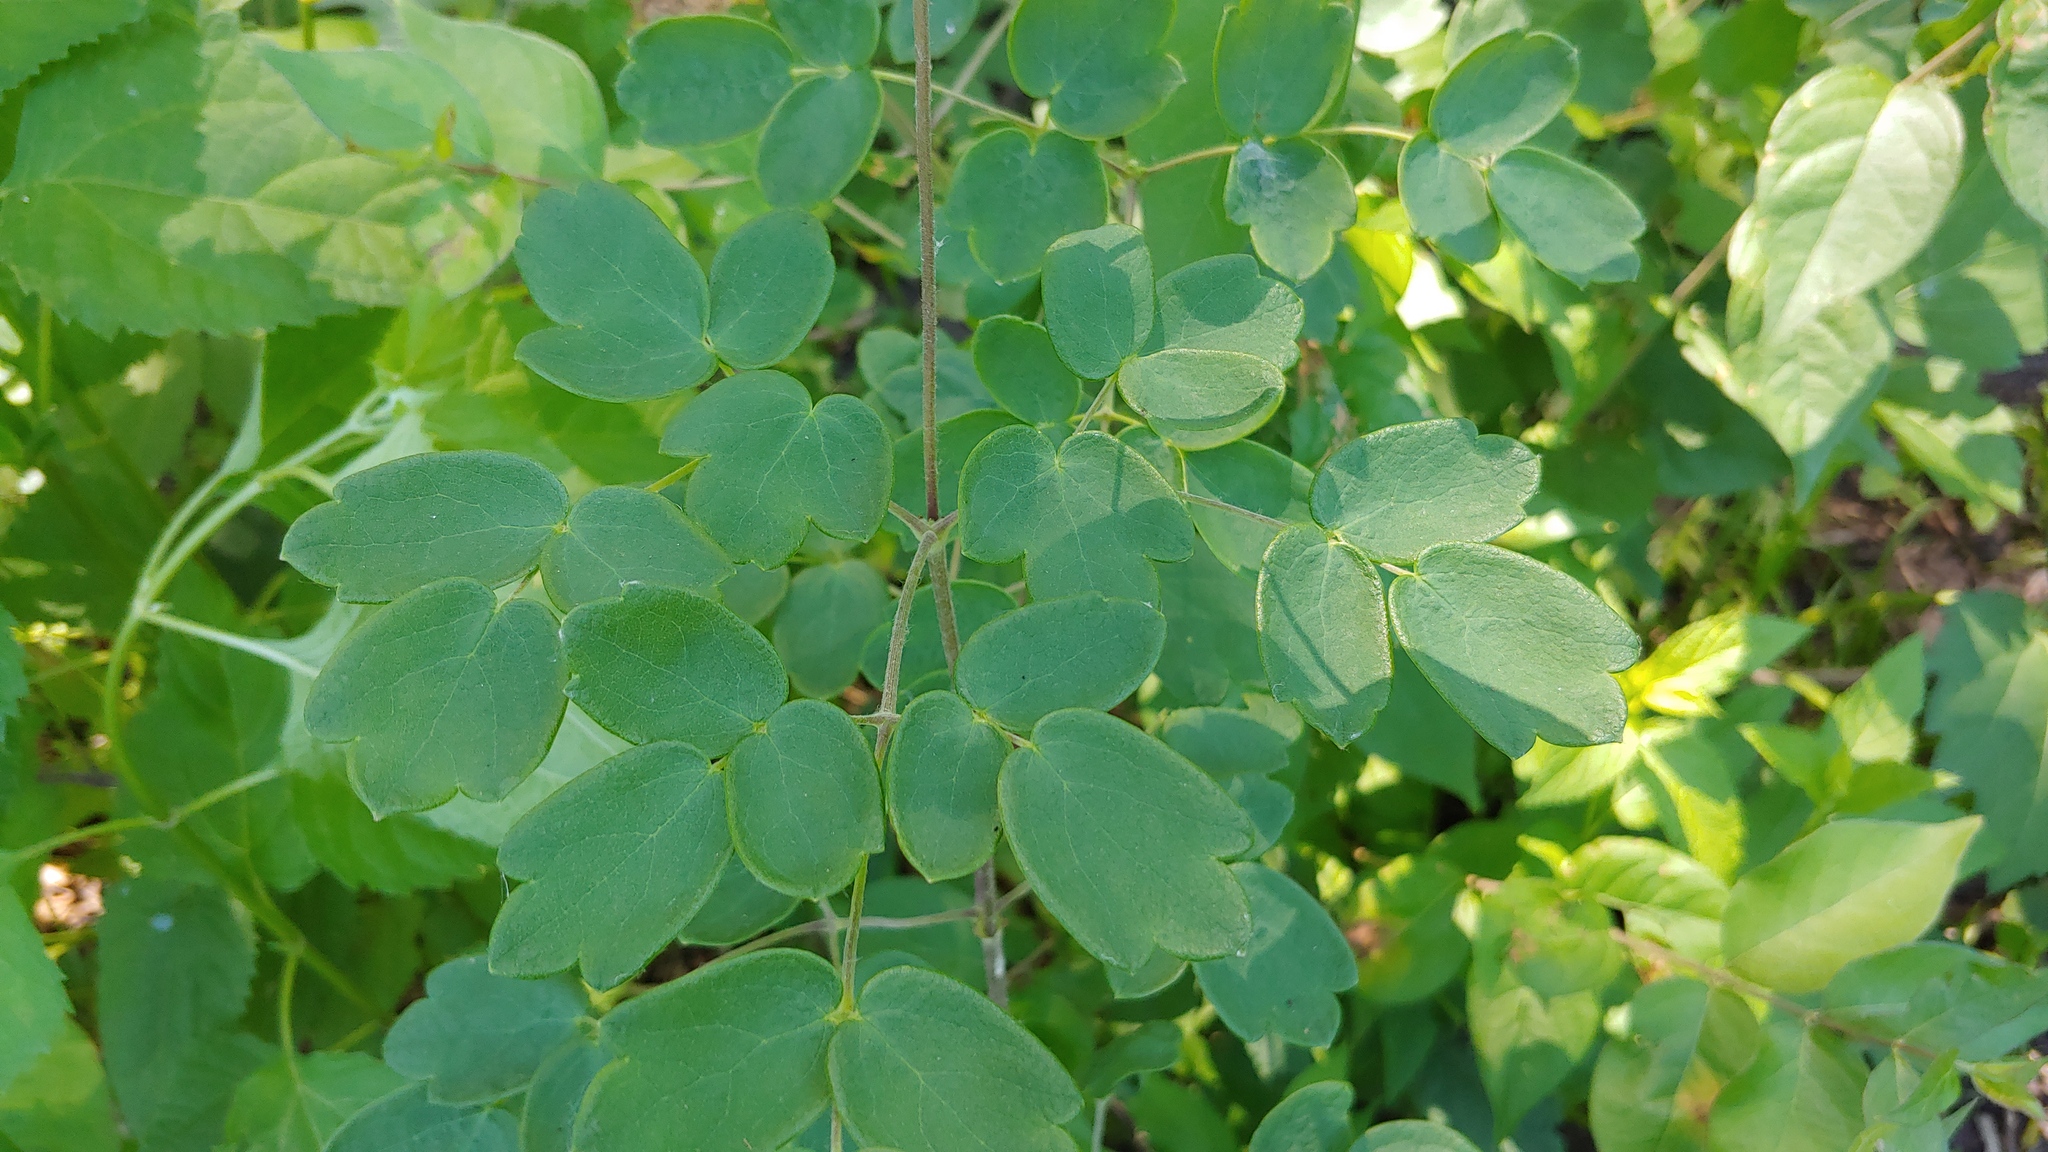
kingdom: Plantae
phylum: Tracheophyta
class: Magnoliopsida
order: Ranunculales
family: Ranunculaceae
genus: Thalictrum
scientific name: Thalictrum revolutum
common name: Waxy meadow-rue
